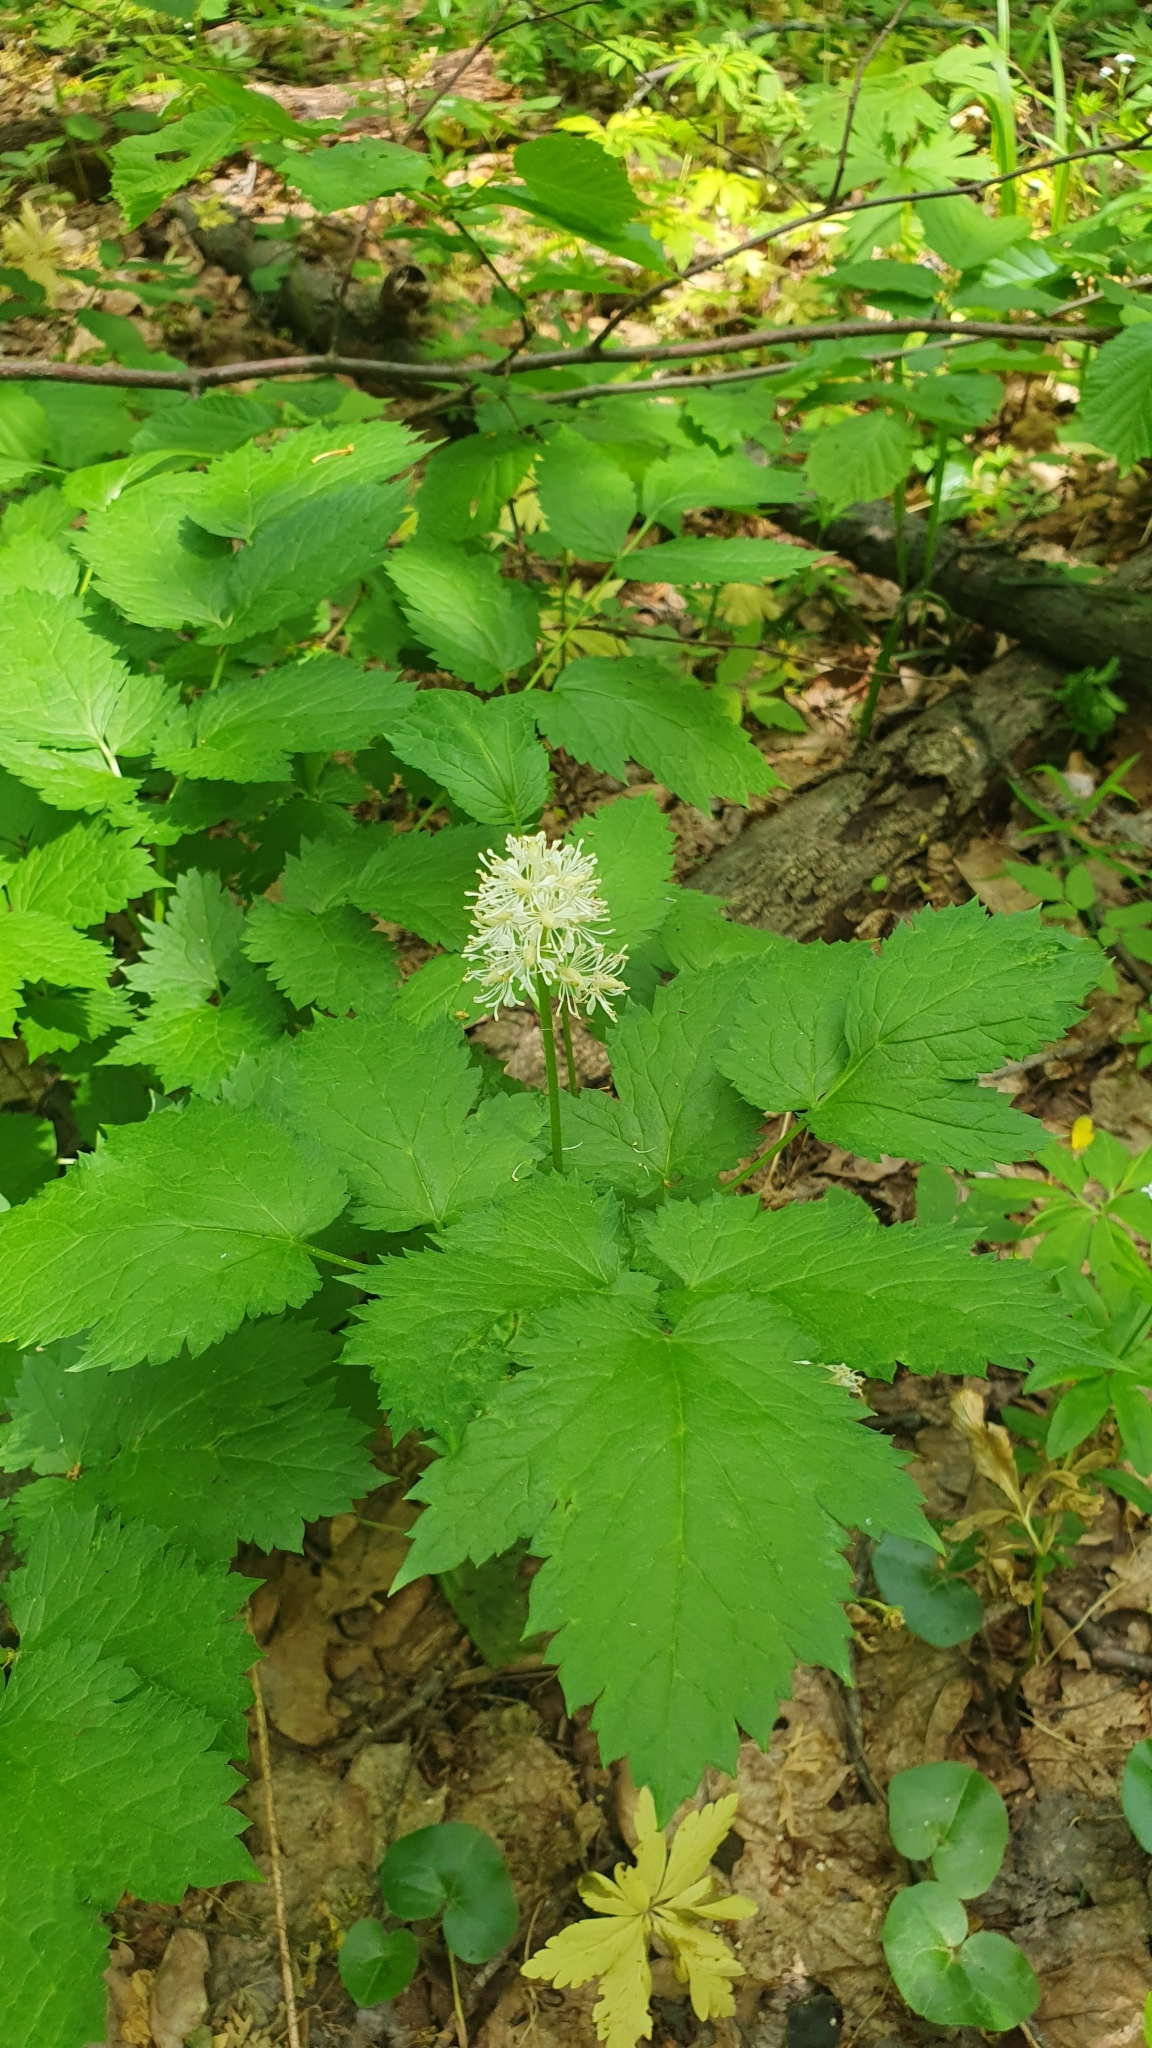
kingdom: Plantae
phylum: Tracheophyta
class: Magnoliopsida
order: Ranunculales
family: Ranunculaceae
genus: Actaea
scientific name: Actaea spicata
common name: Baneberry
